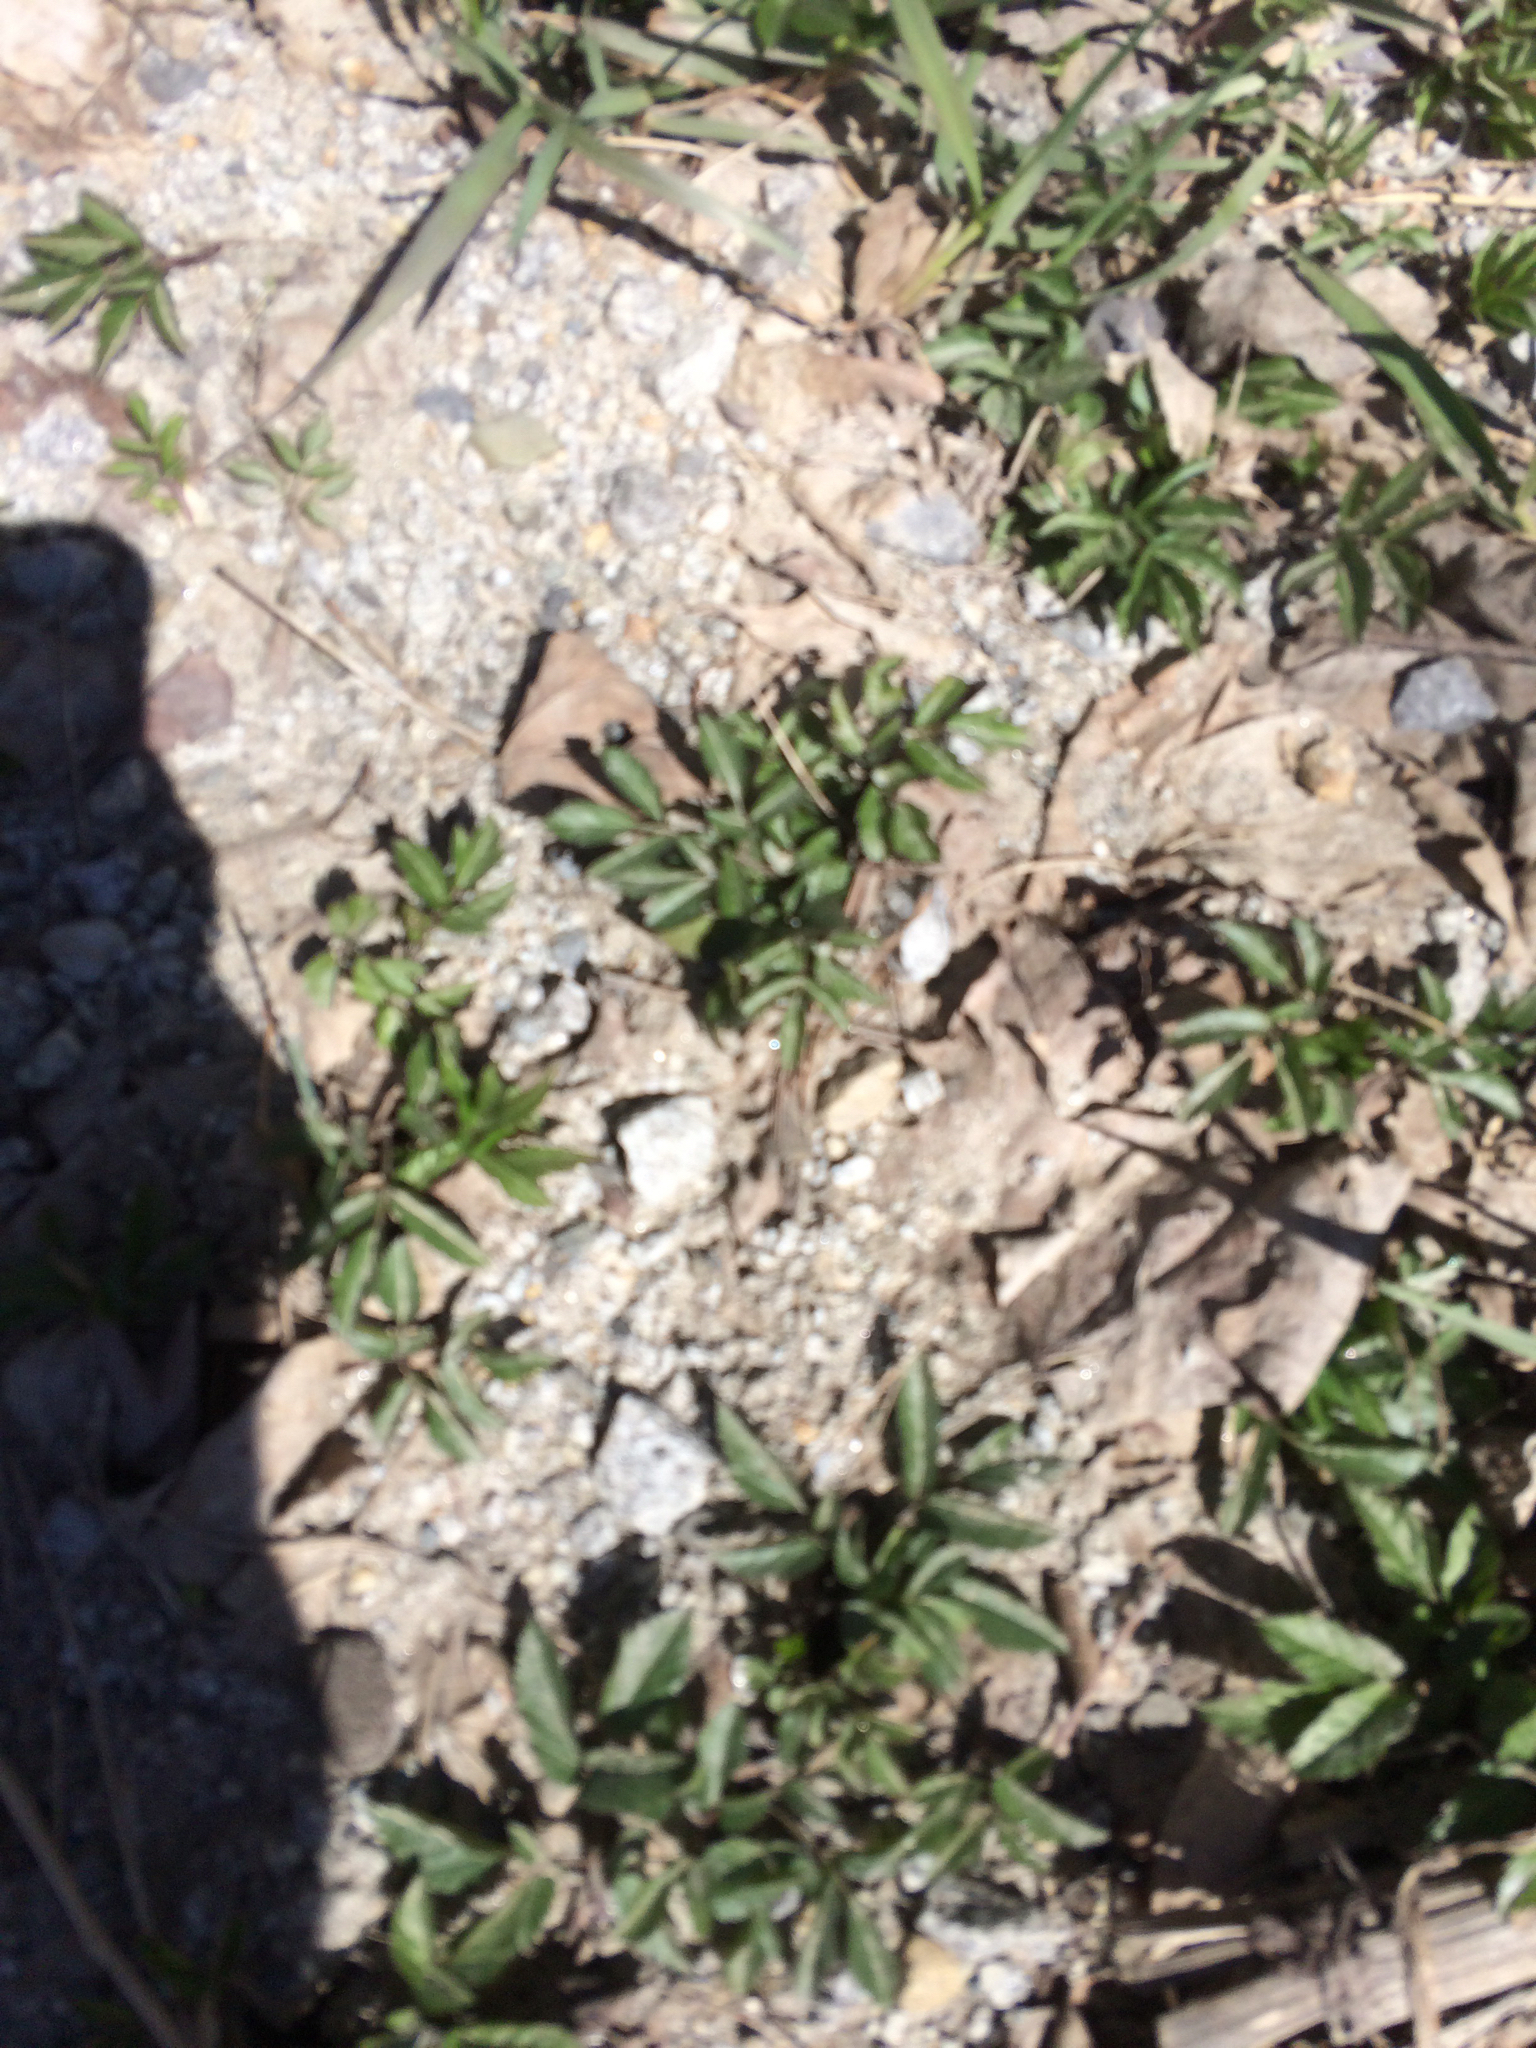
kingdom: Plantae
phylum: Tracheophyta
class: Magnoliopsida
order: Apiales
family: Apiaceae
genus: Aegopodium
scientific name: Aegopodium podagraria
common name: Ground-elder
